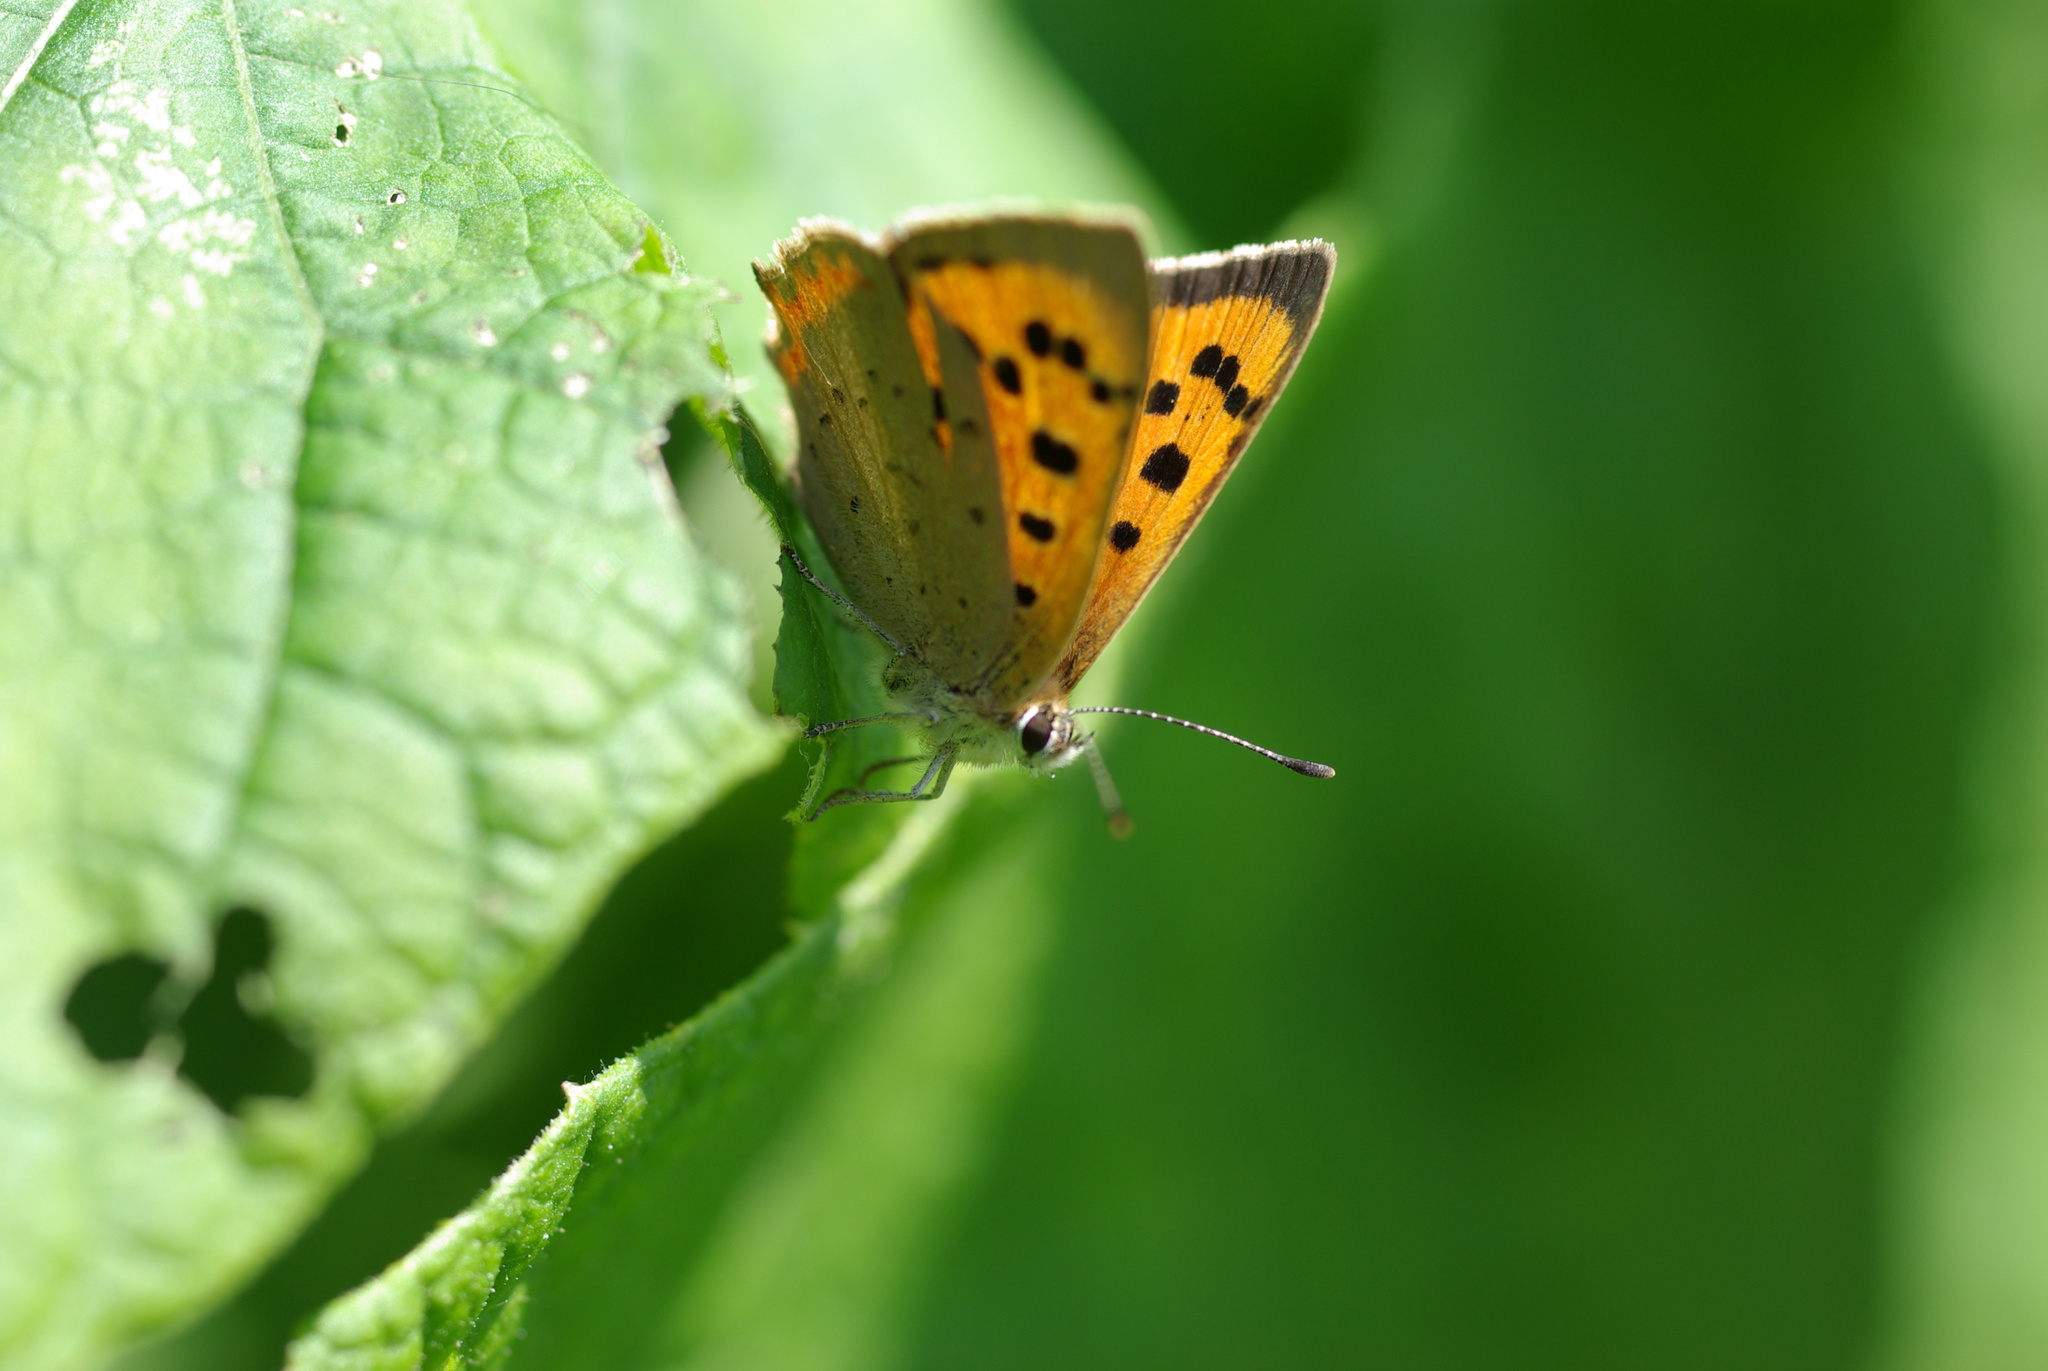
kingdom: Animalia
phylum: Arthropoda
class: Insecta
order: Lepidoptera
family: Lycaenidae
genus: Lycaena
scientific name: Lycaena phlaeas
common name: Small copper
